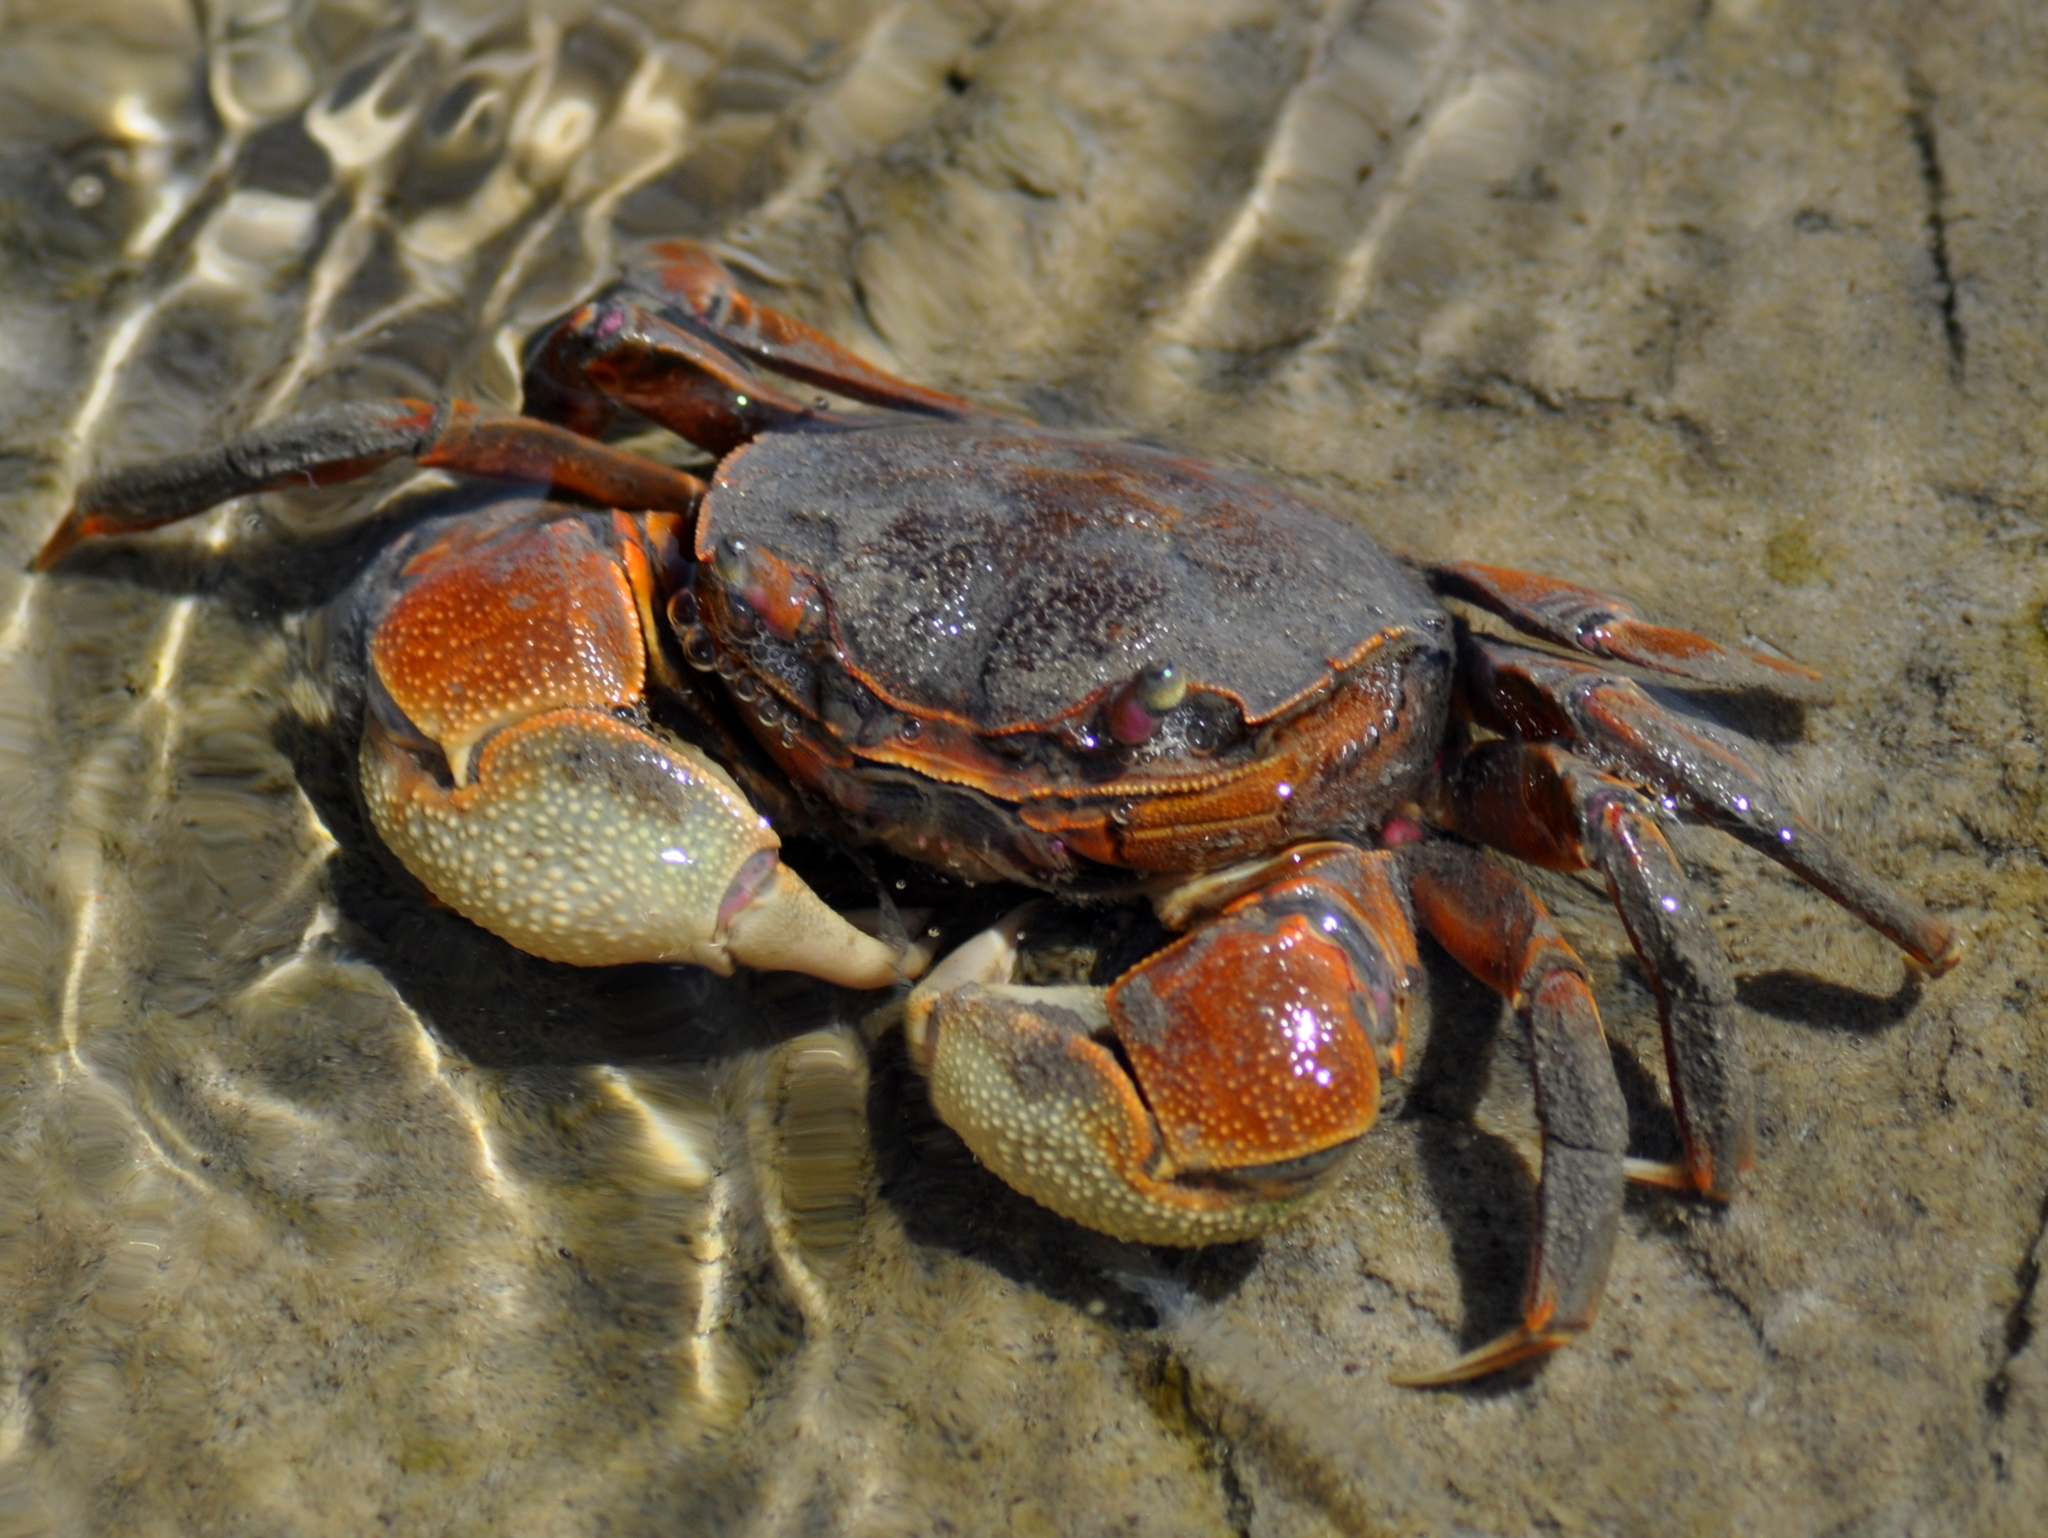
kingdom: Animalia
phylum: Arthropoda
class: Malacostraca
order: Decapoda
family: Varunidae
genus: Neohelice
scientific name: Neohelice granulata
